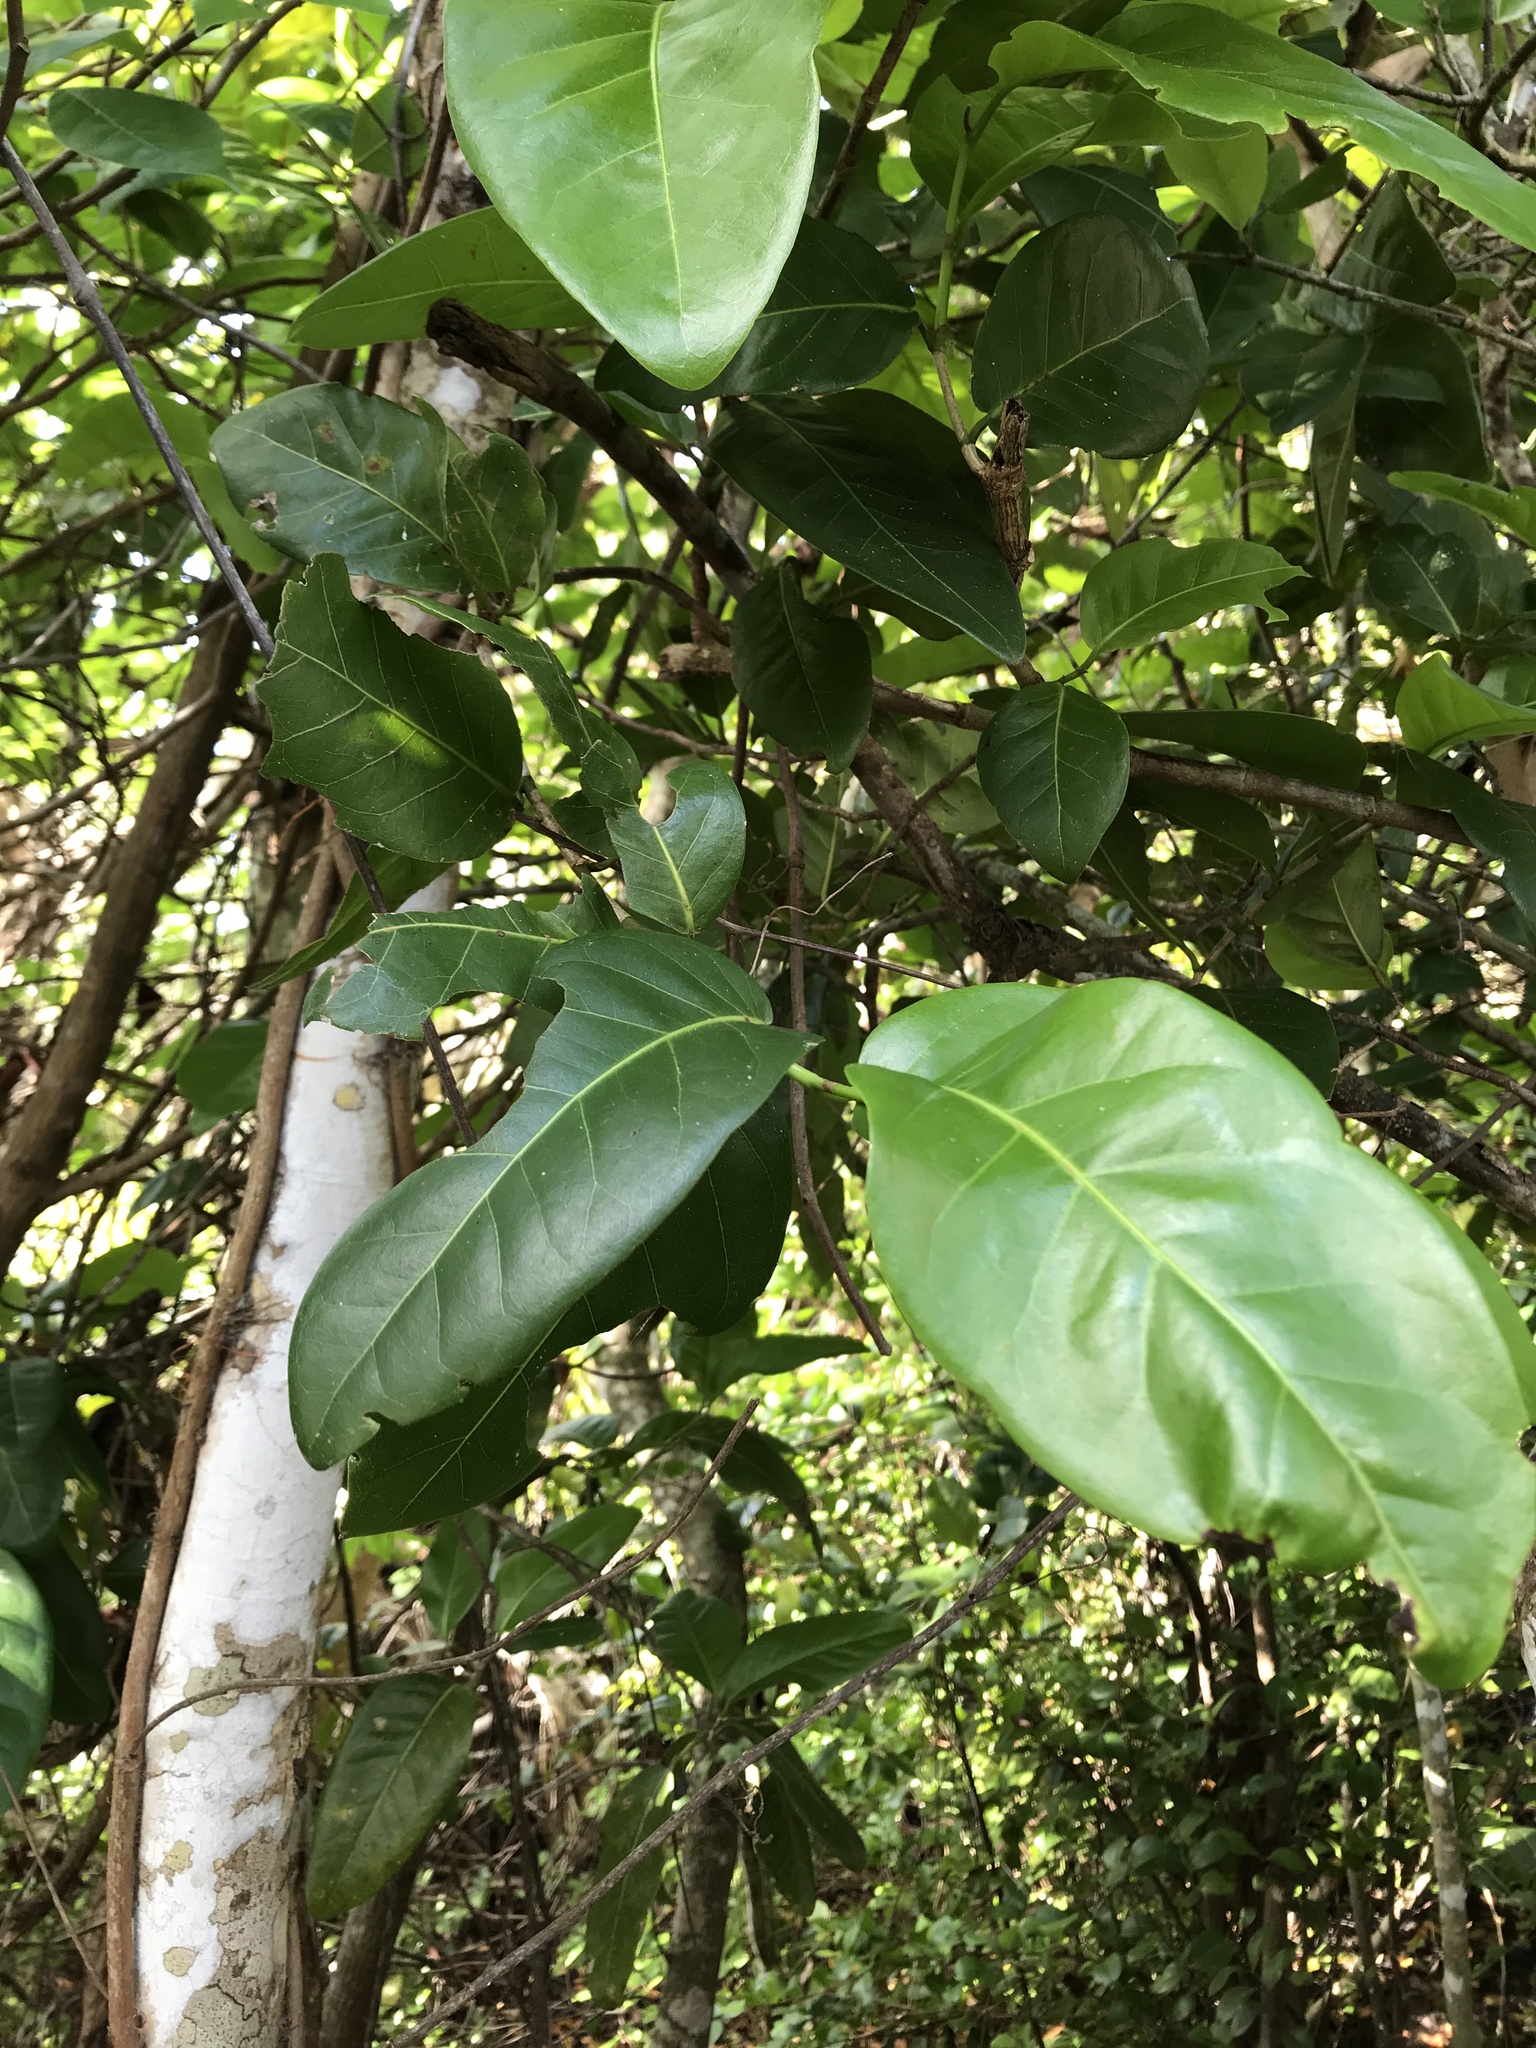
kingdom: Plantae
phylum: Tracheophyta
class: Magnoliopsida
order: Caryophyllales
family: Polygonaceae
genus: Coccoloba
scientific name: Coccoloba diversifolia
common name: Pigeon-plum
